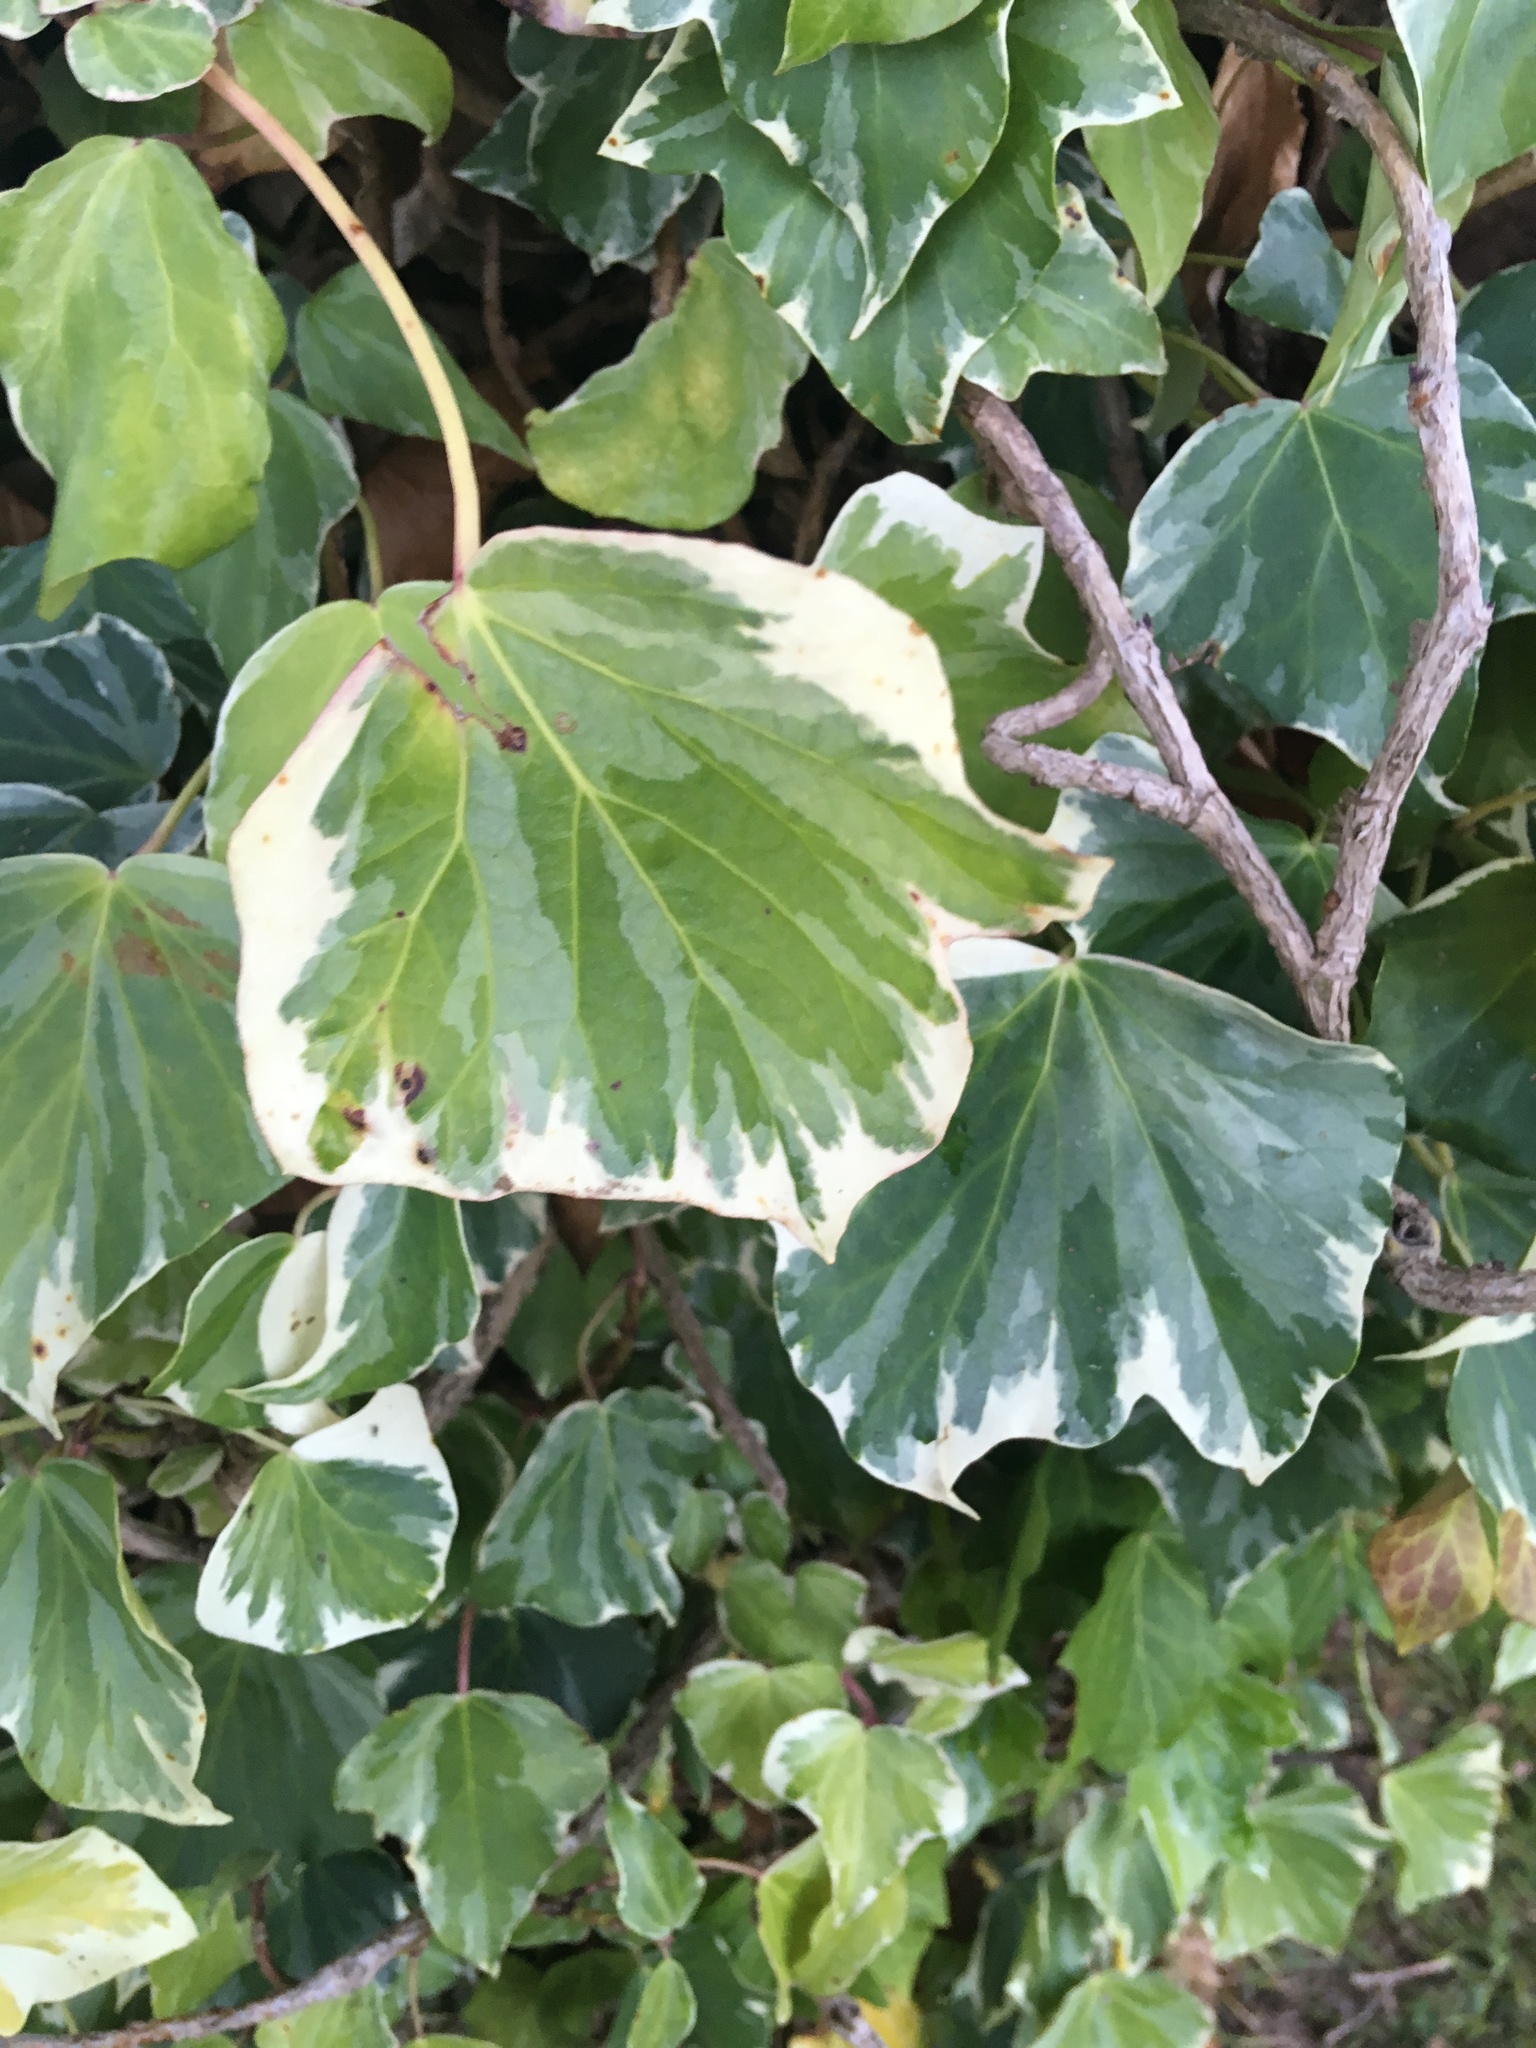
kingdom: Plantae
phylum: Tracheophyta
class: Magnoliopsida
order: Apiales
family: Araliaceae
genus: Hedera
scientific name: Hedera helix
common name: Ivy
